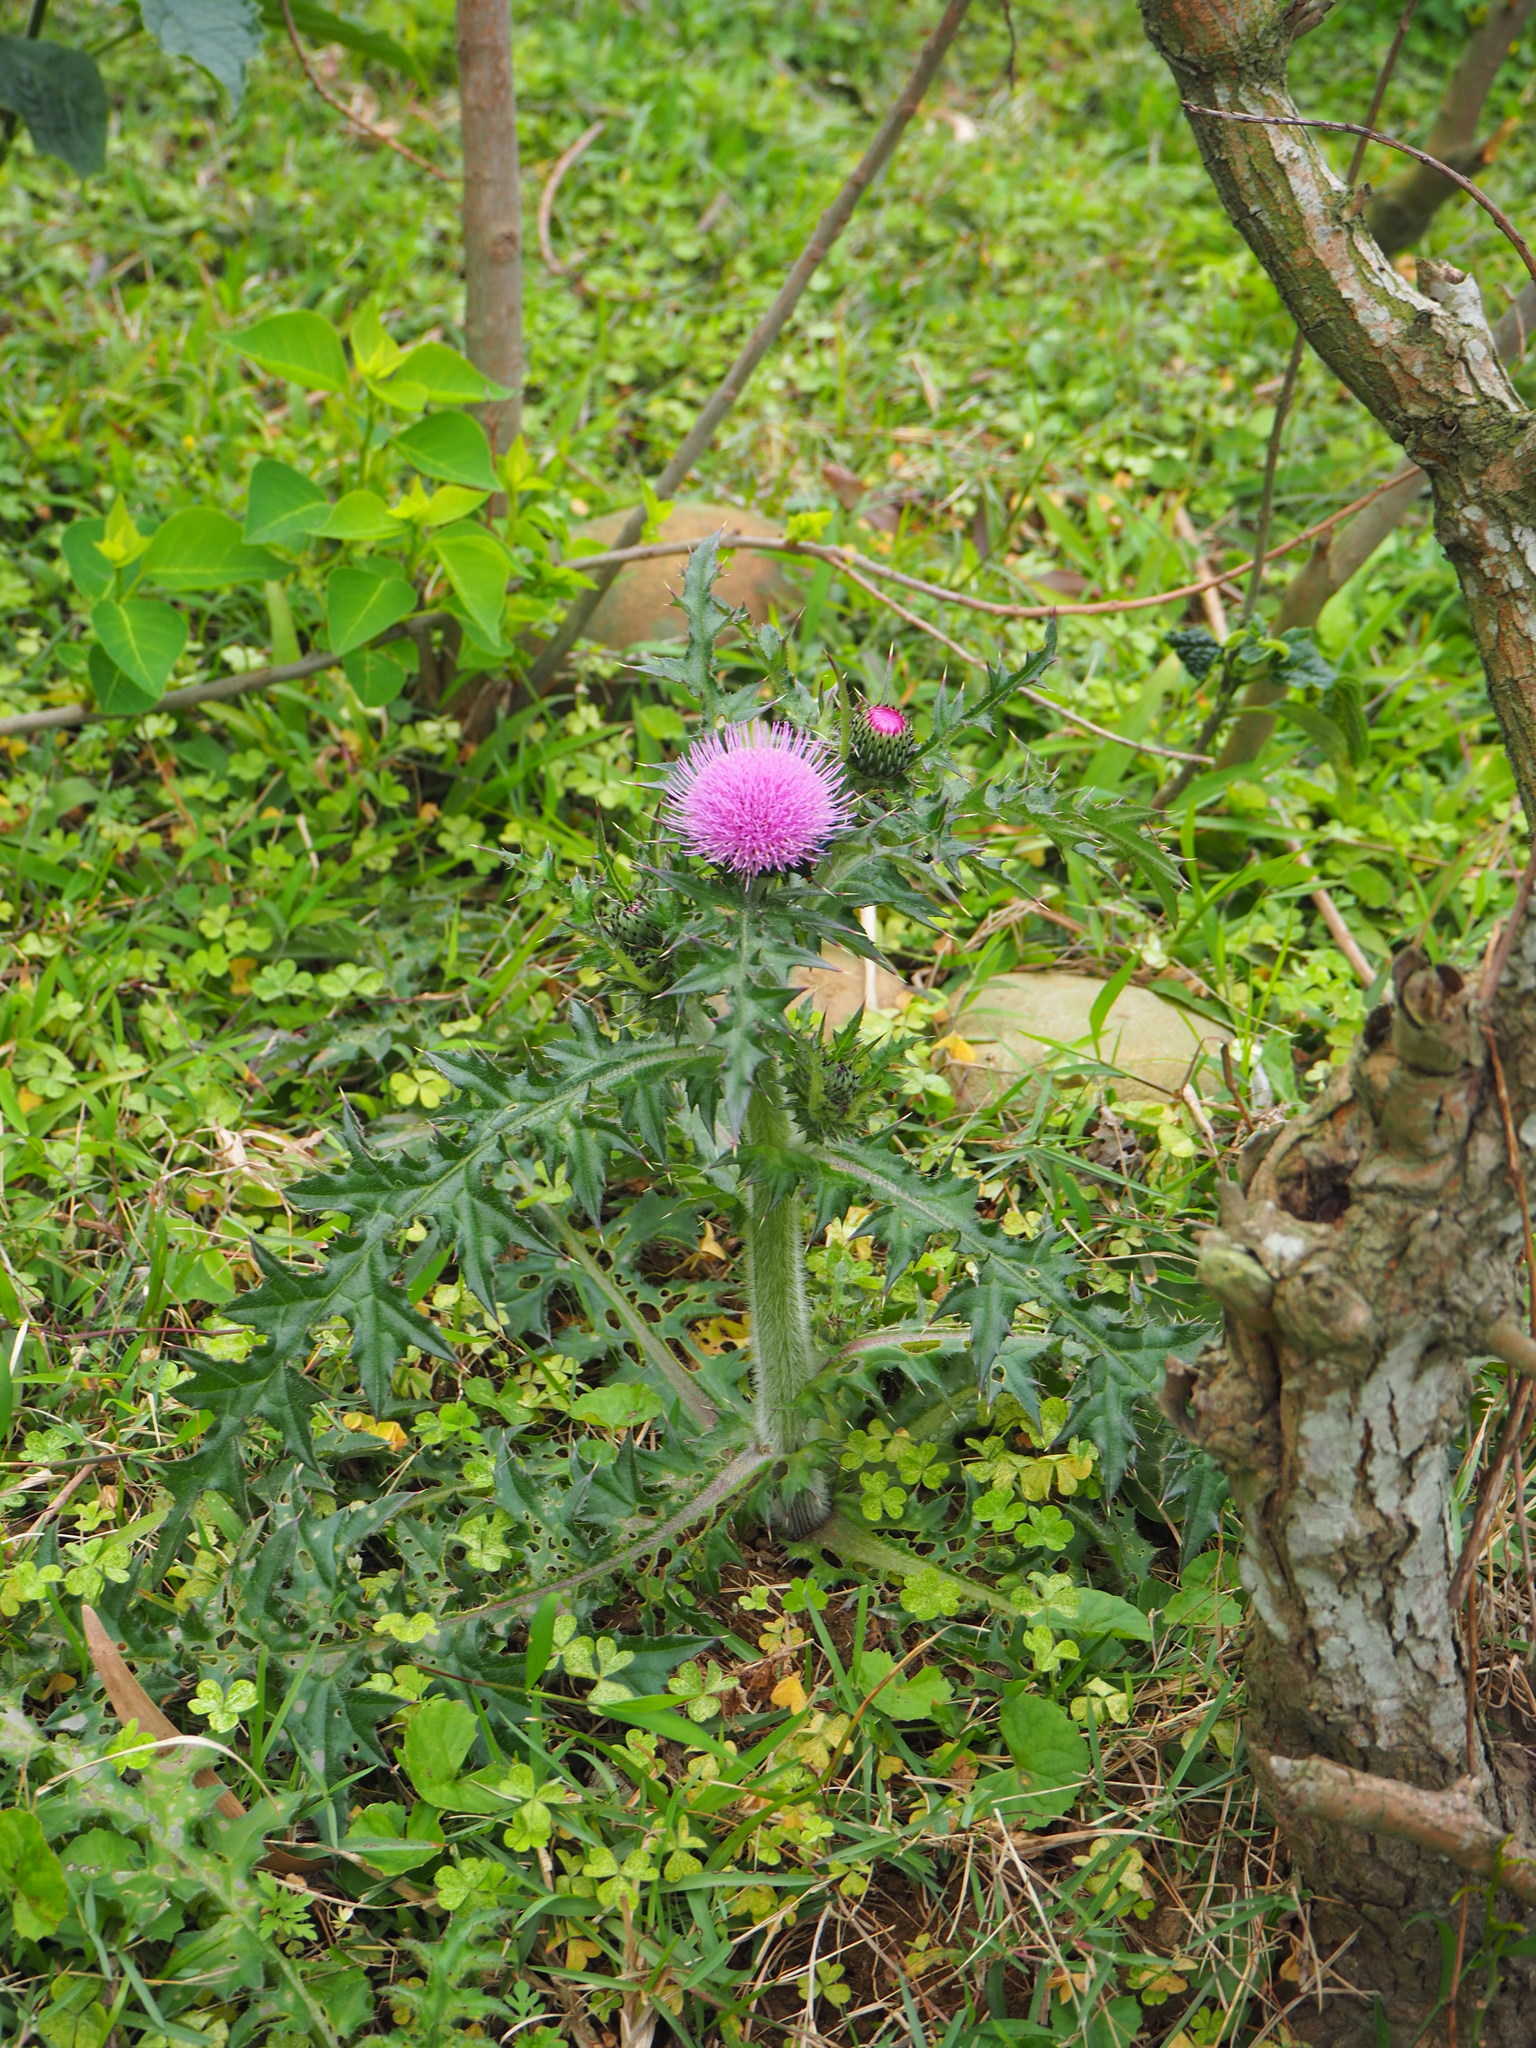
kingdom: Plantae
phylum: Tracheophyta
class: Magnoliopsida
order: Asterales
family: Asteraceae
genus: Cirsium
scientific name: Cirsium japonicum
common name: Japanese thistle
